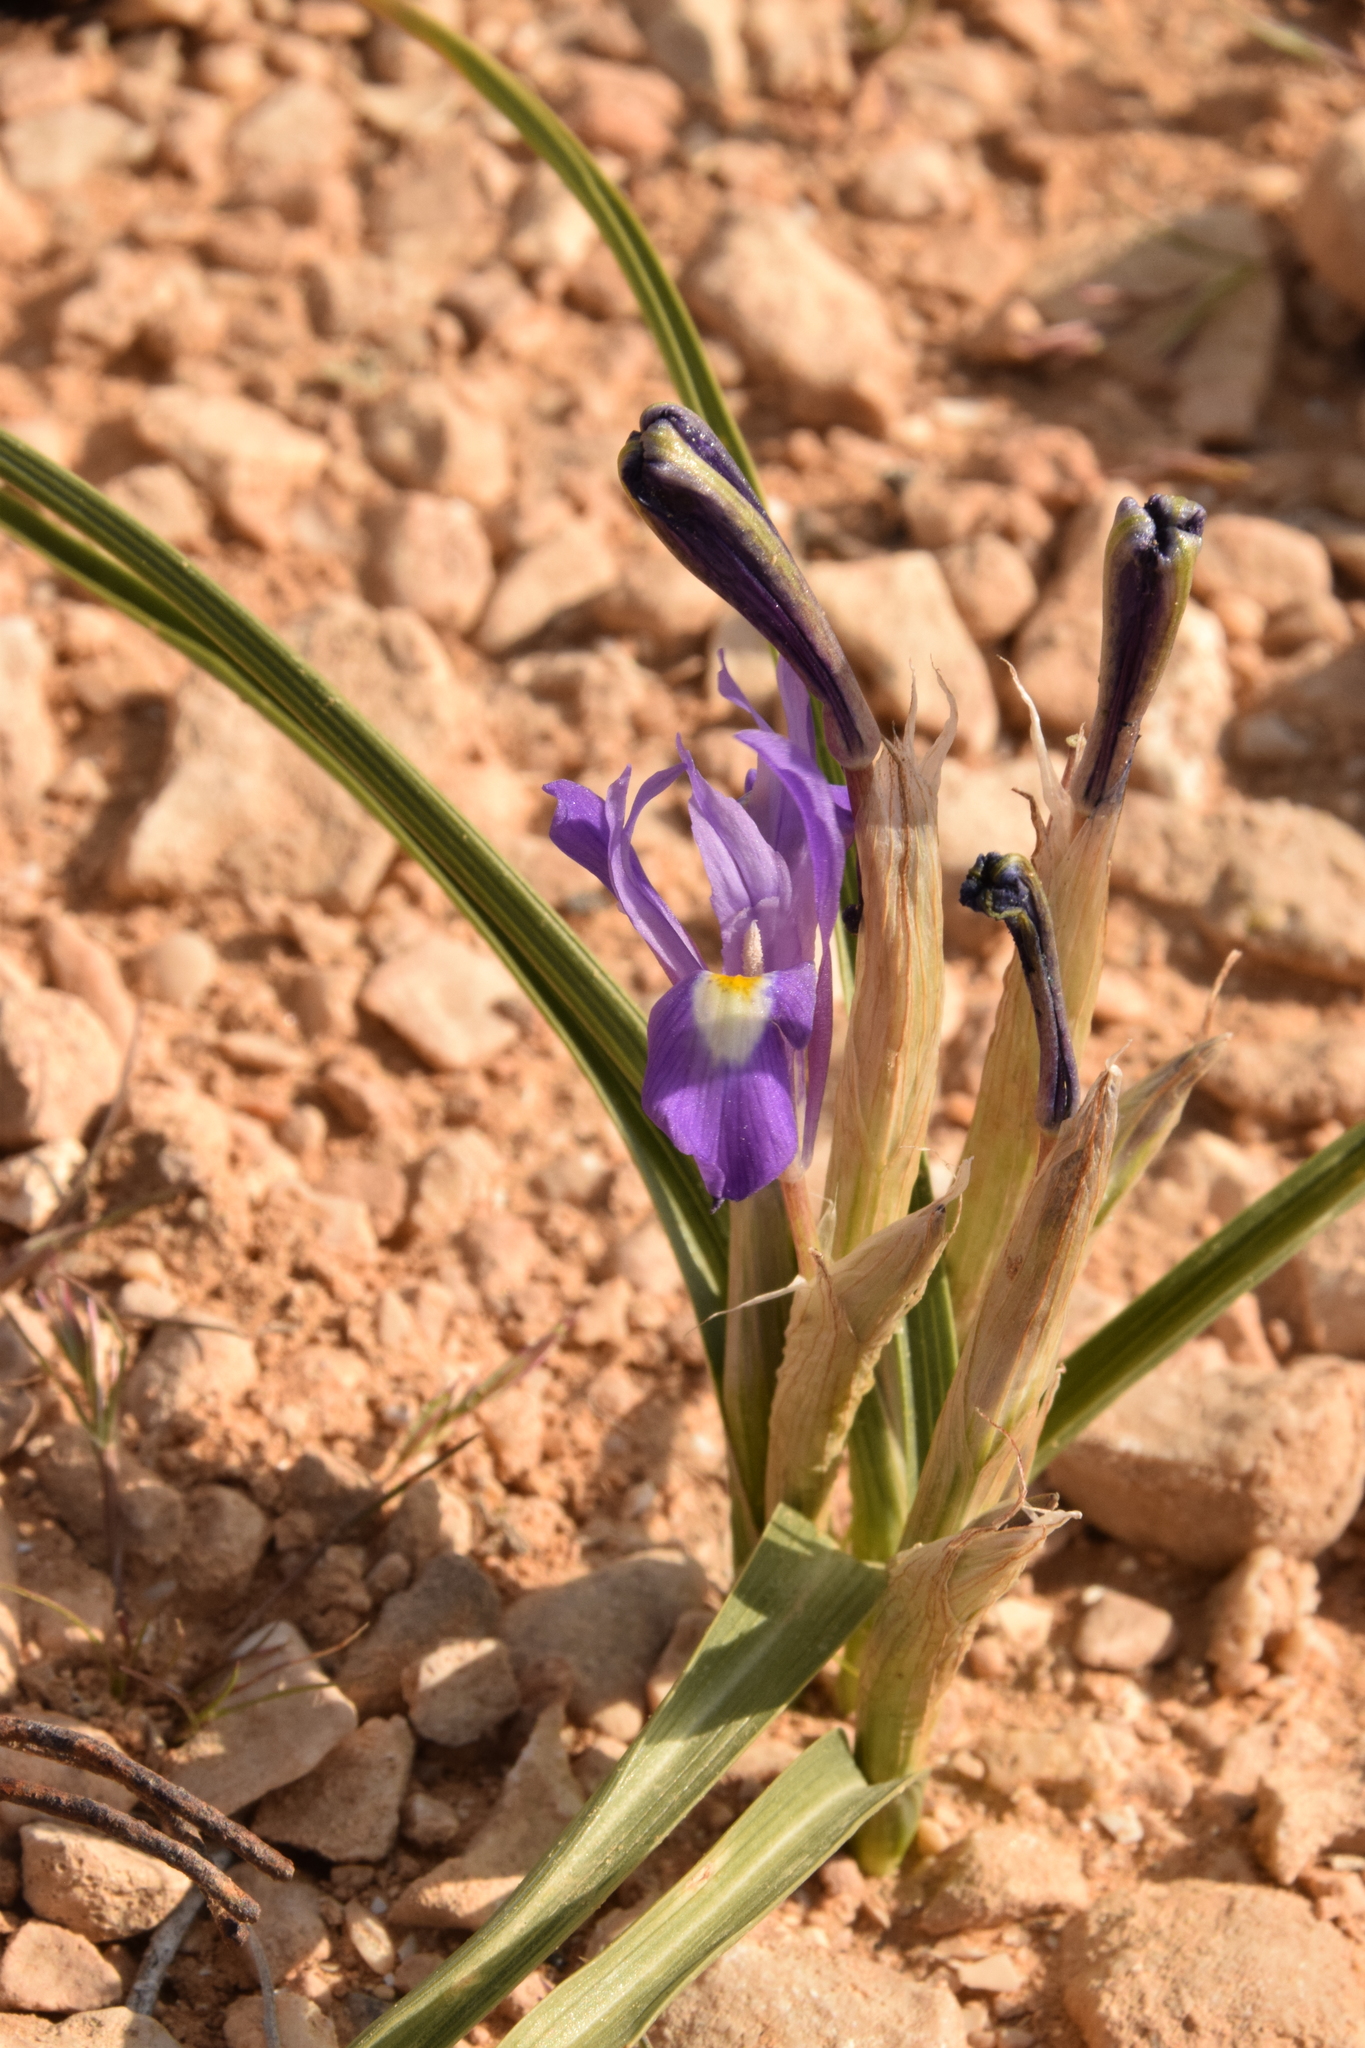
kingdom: Plantae
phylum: Tracheophyta
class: Liliopsida
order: Asparagales
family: Iridaceae
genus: Moraea
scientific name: Moraea sisyrinchium
